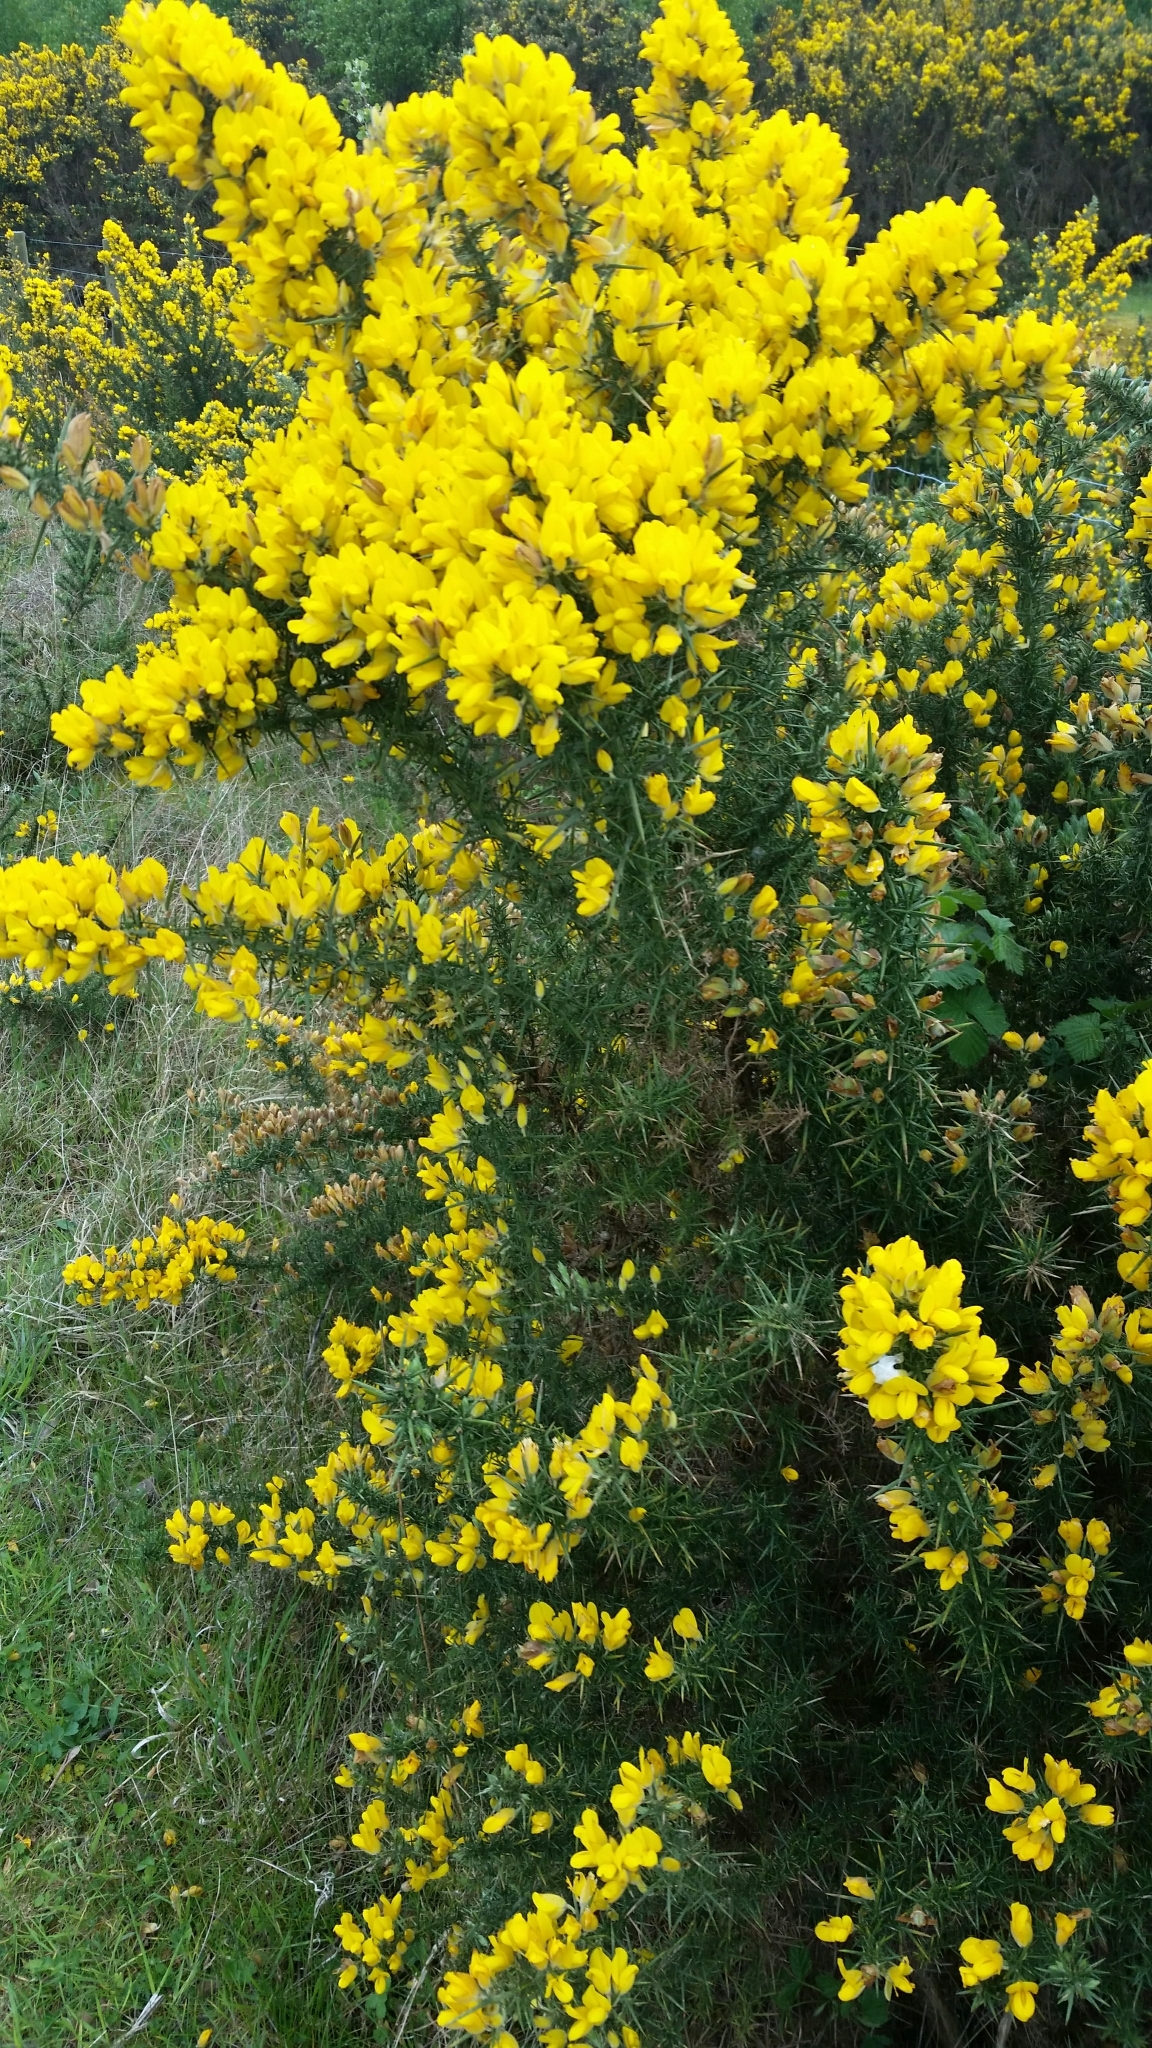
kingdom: Plantae
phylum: Tracheophyta
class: Magnoliopsida
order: Fabales
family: Fabaceae
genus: Ulex
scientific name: Ulex europaeus
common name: Common gorse
